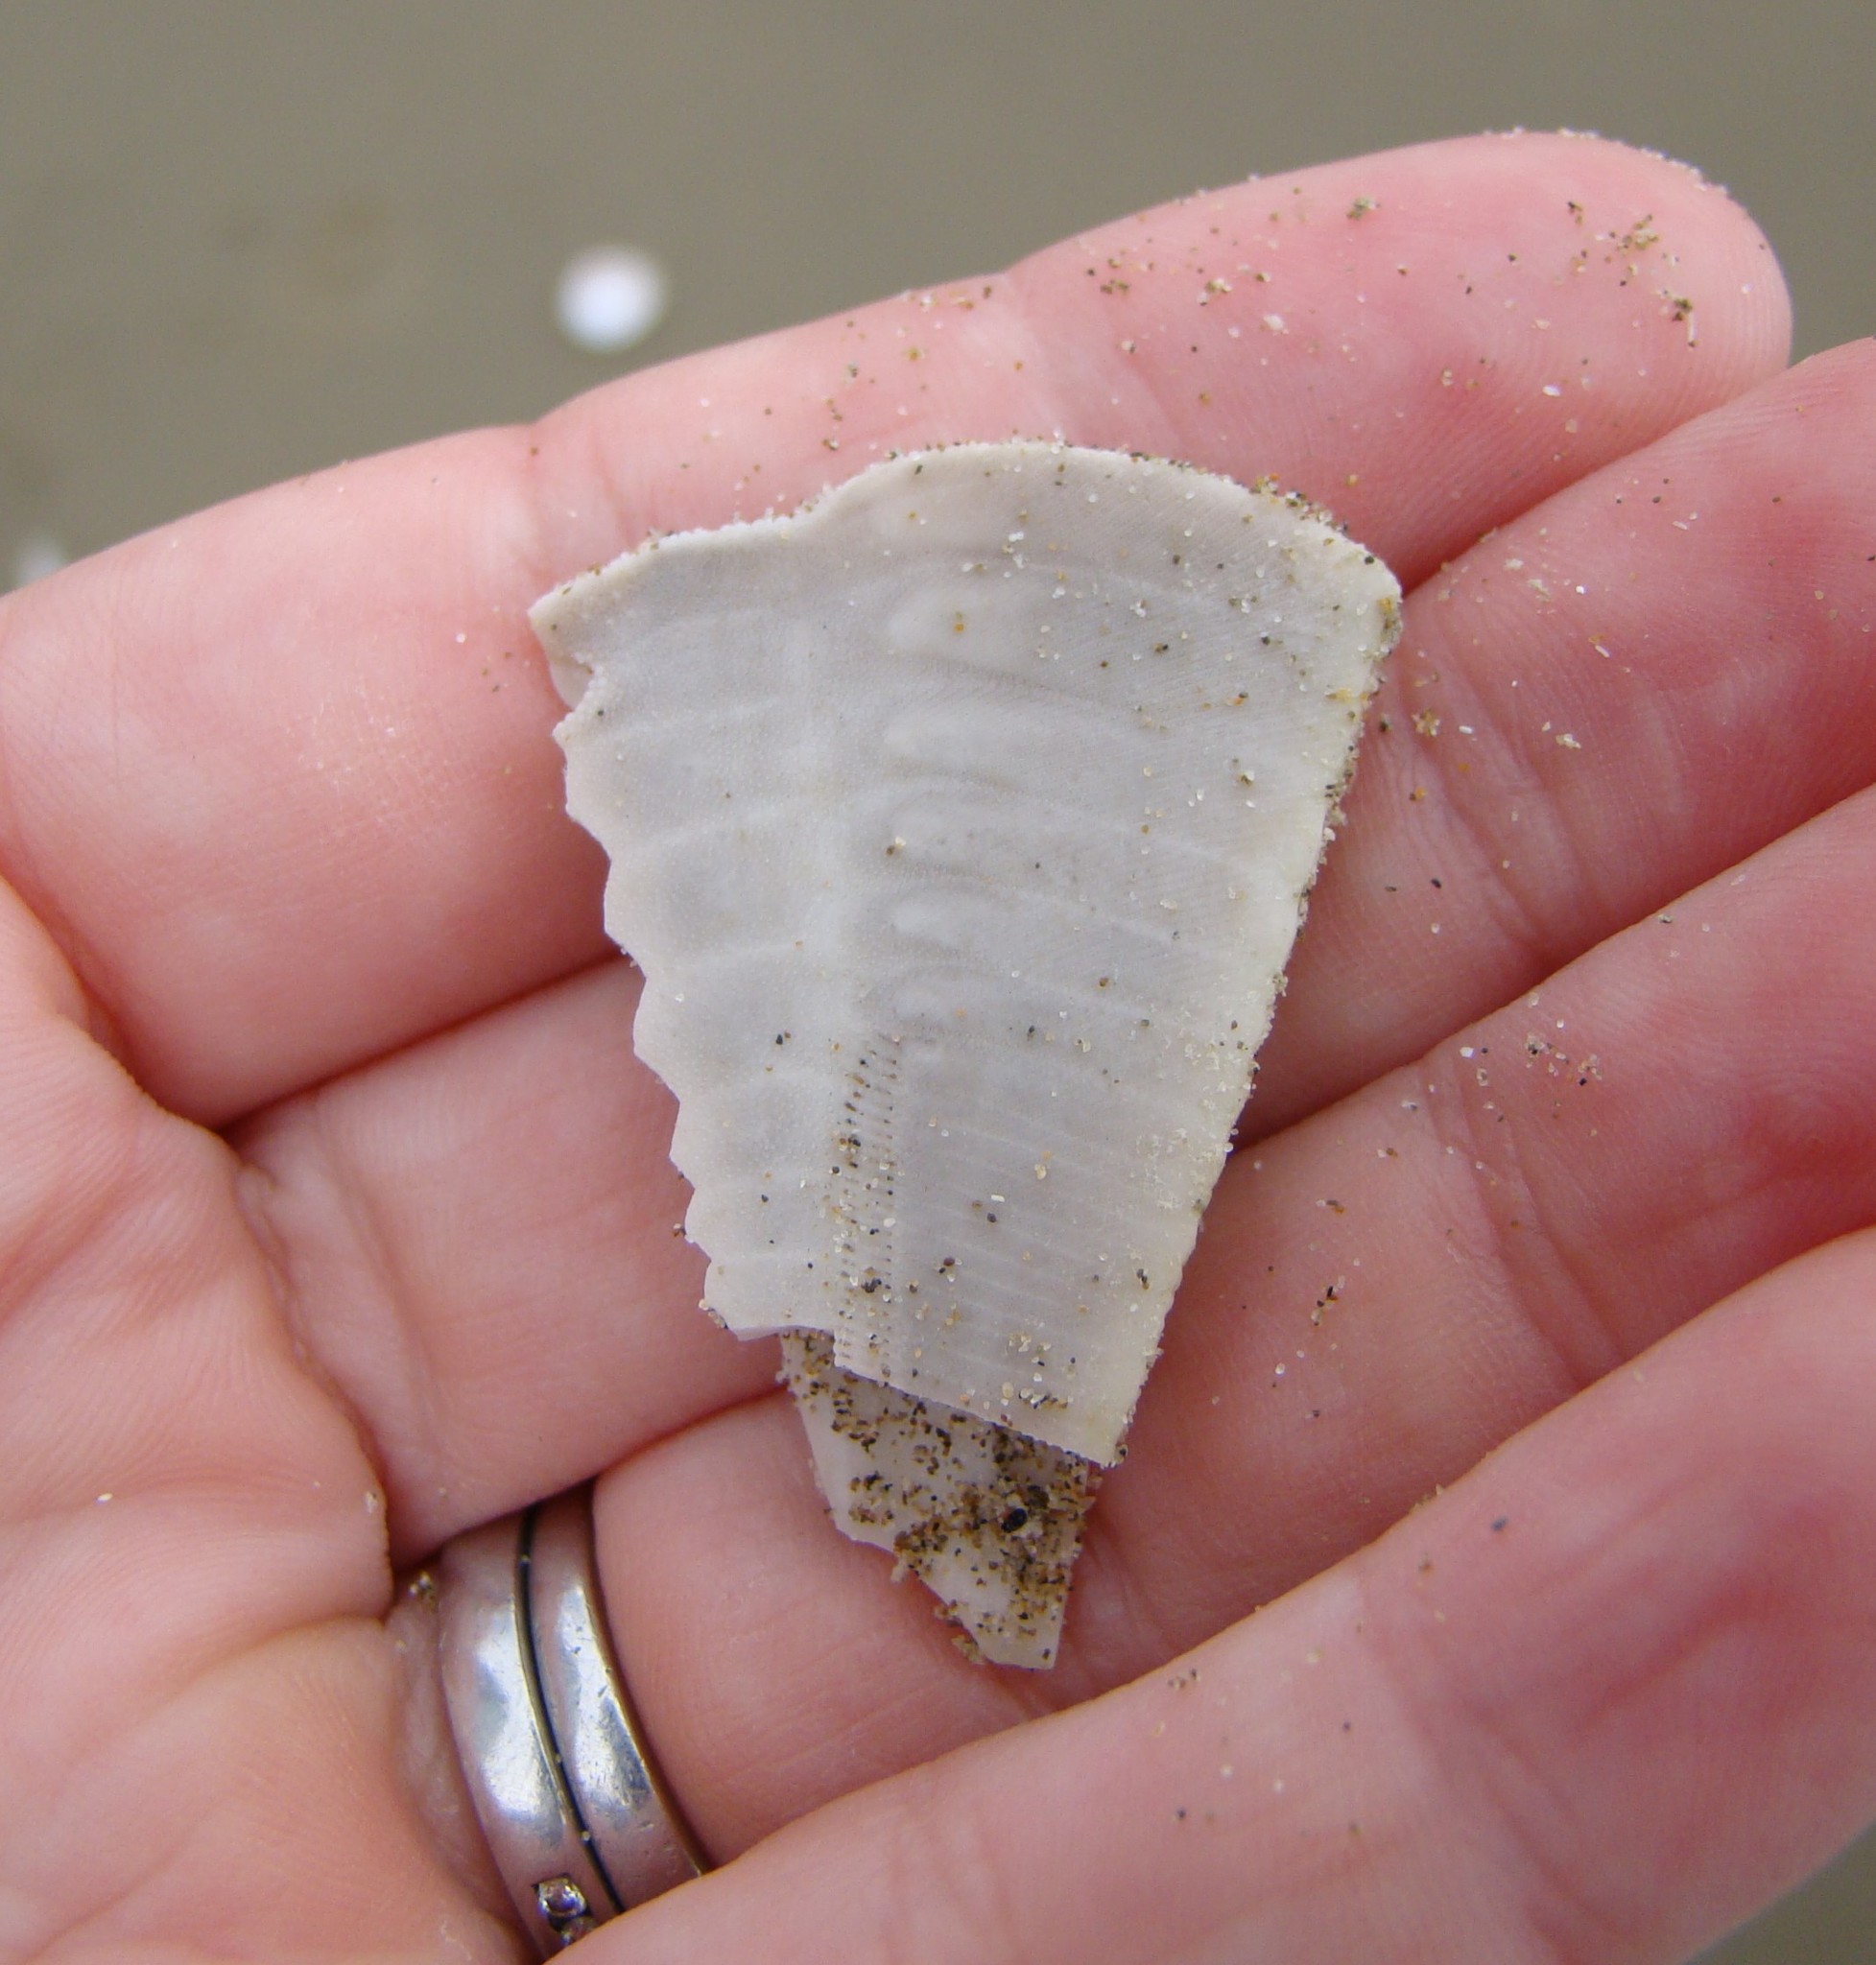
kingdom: Animalia
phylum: Echinodermata
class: Echinoidea
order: Clypeasteroida
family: Clypeasteridae
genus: Fellaster
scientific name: Fellaster zelandiae
